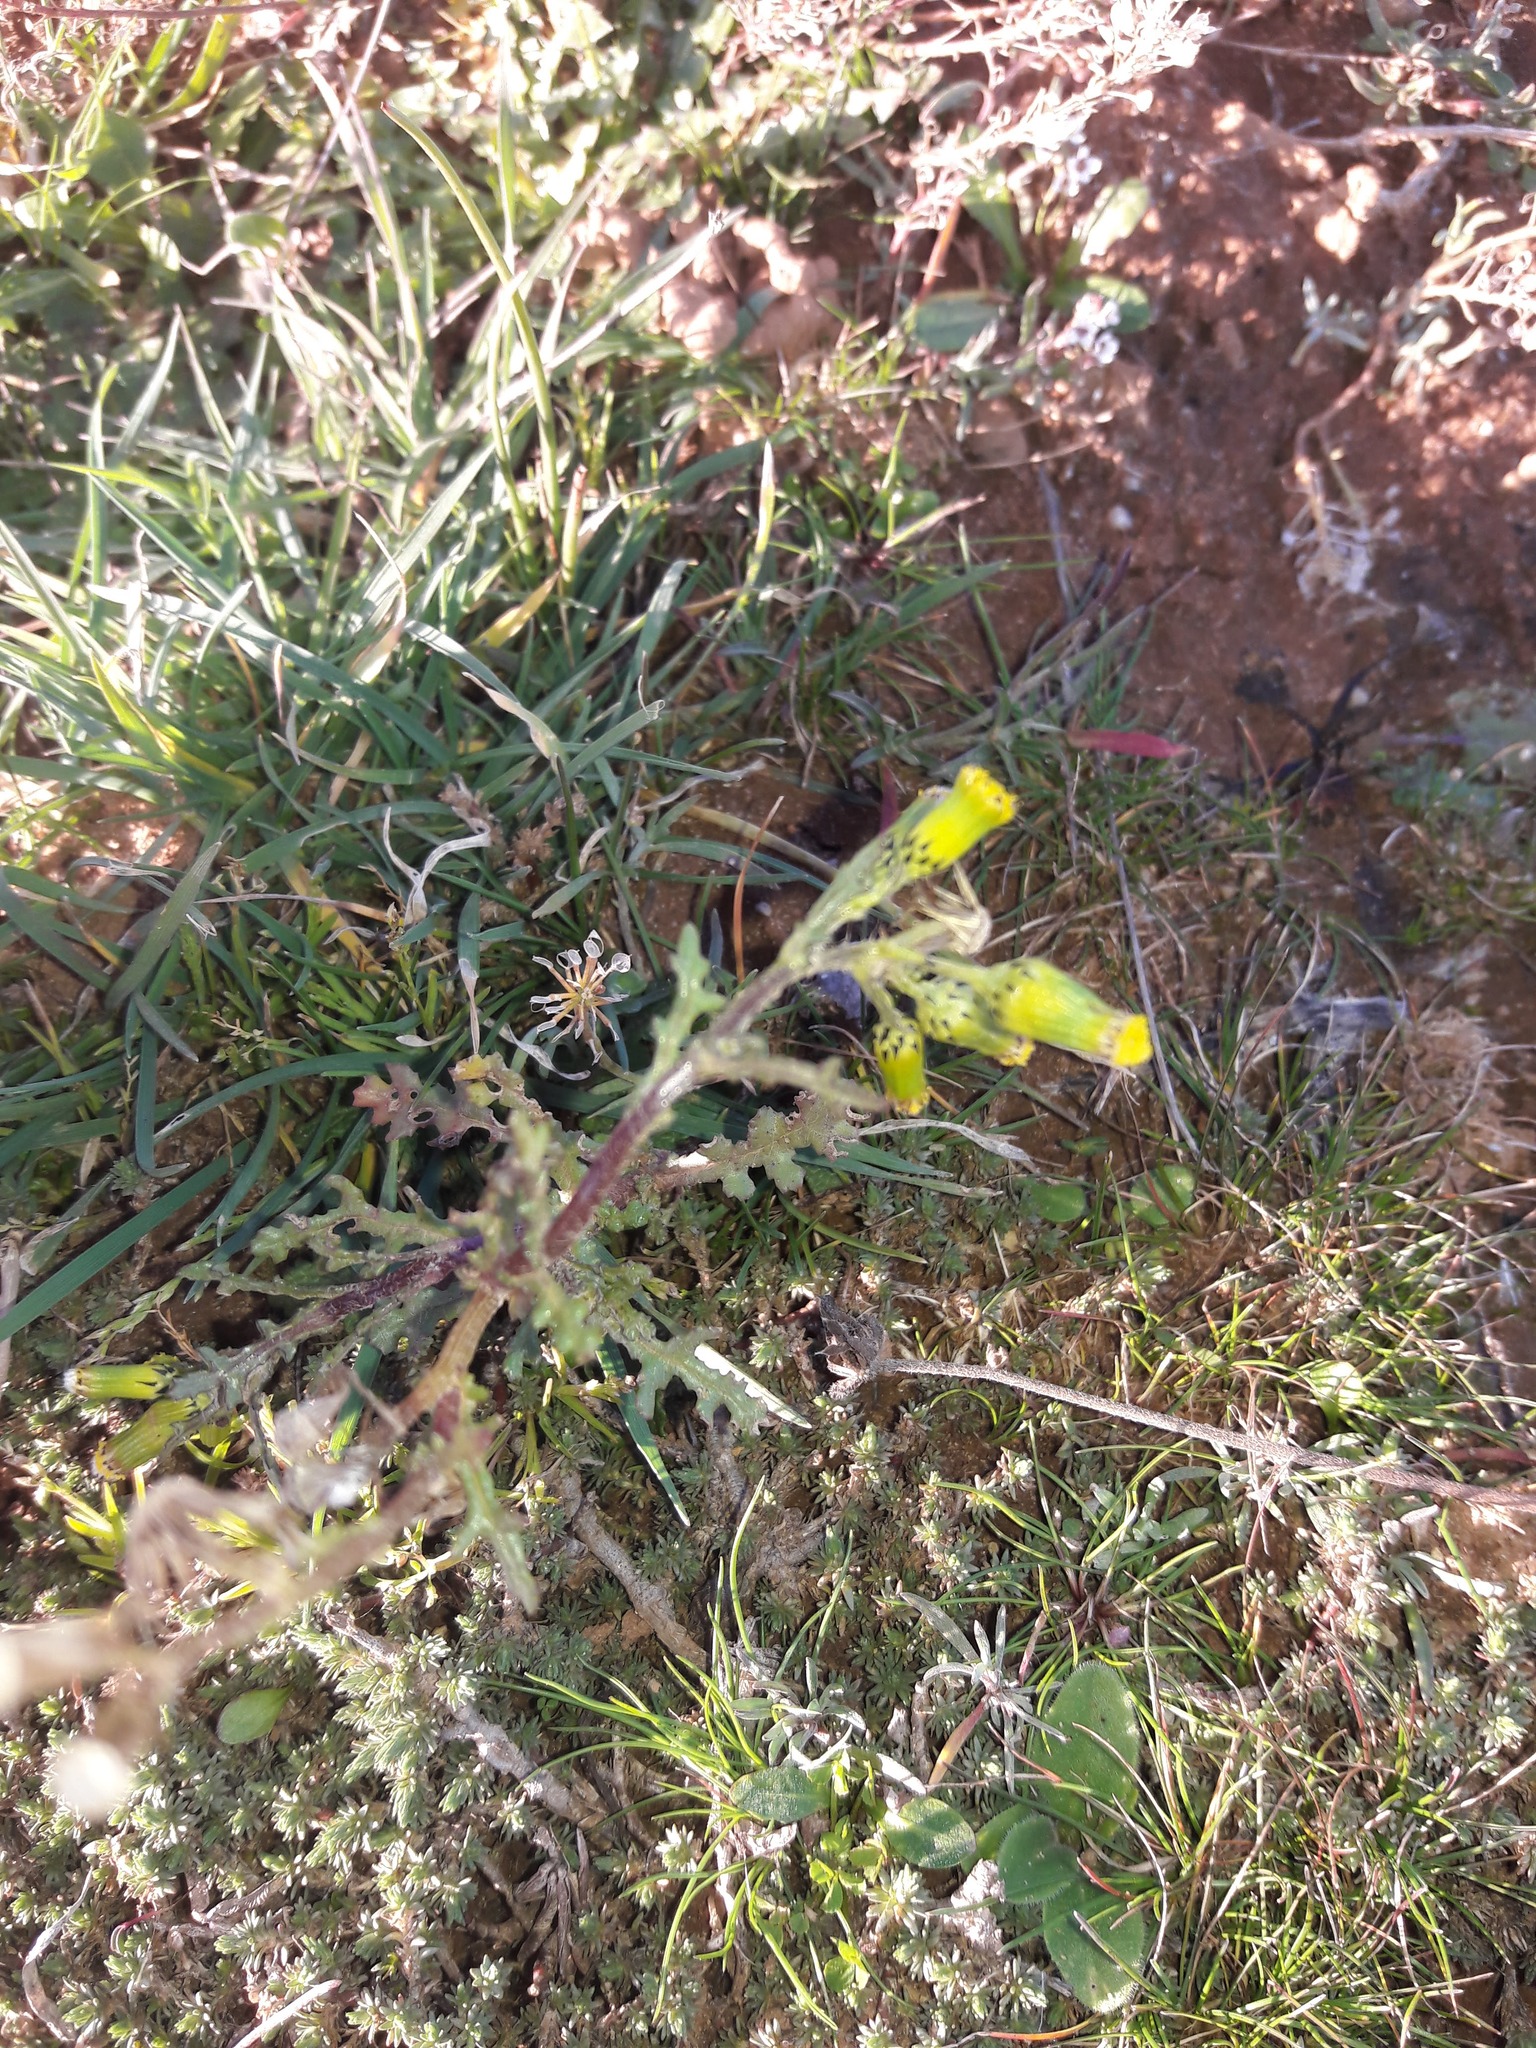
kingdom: Plantae
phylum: Tracheophyta
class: Magnoliopsida
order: Asterales
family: Asteraceae
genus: Senecio
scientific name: Senecio vulgaris
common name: Old-man-in-the-spring
